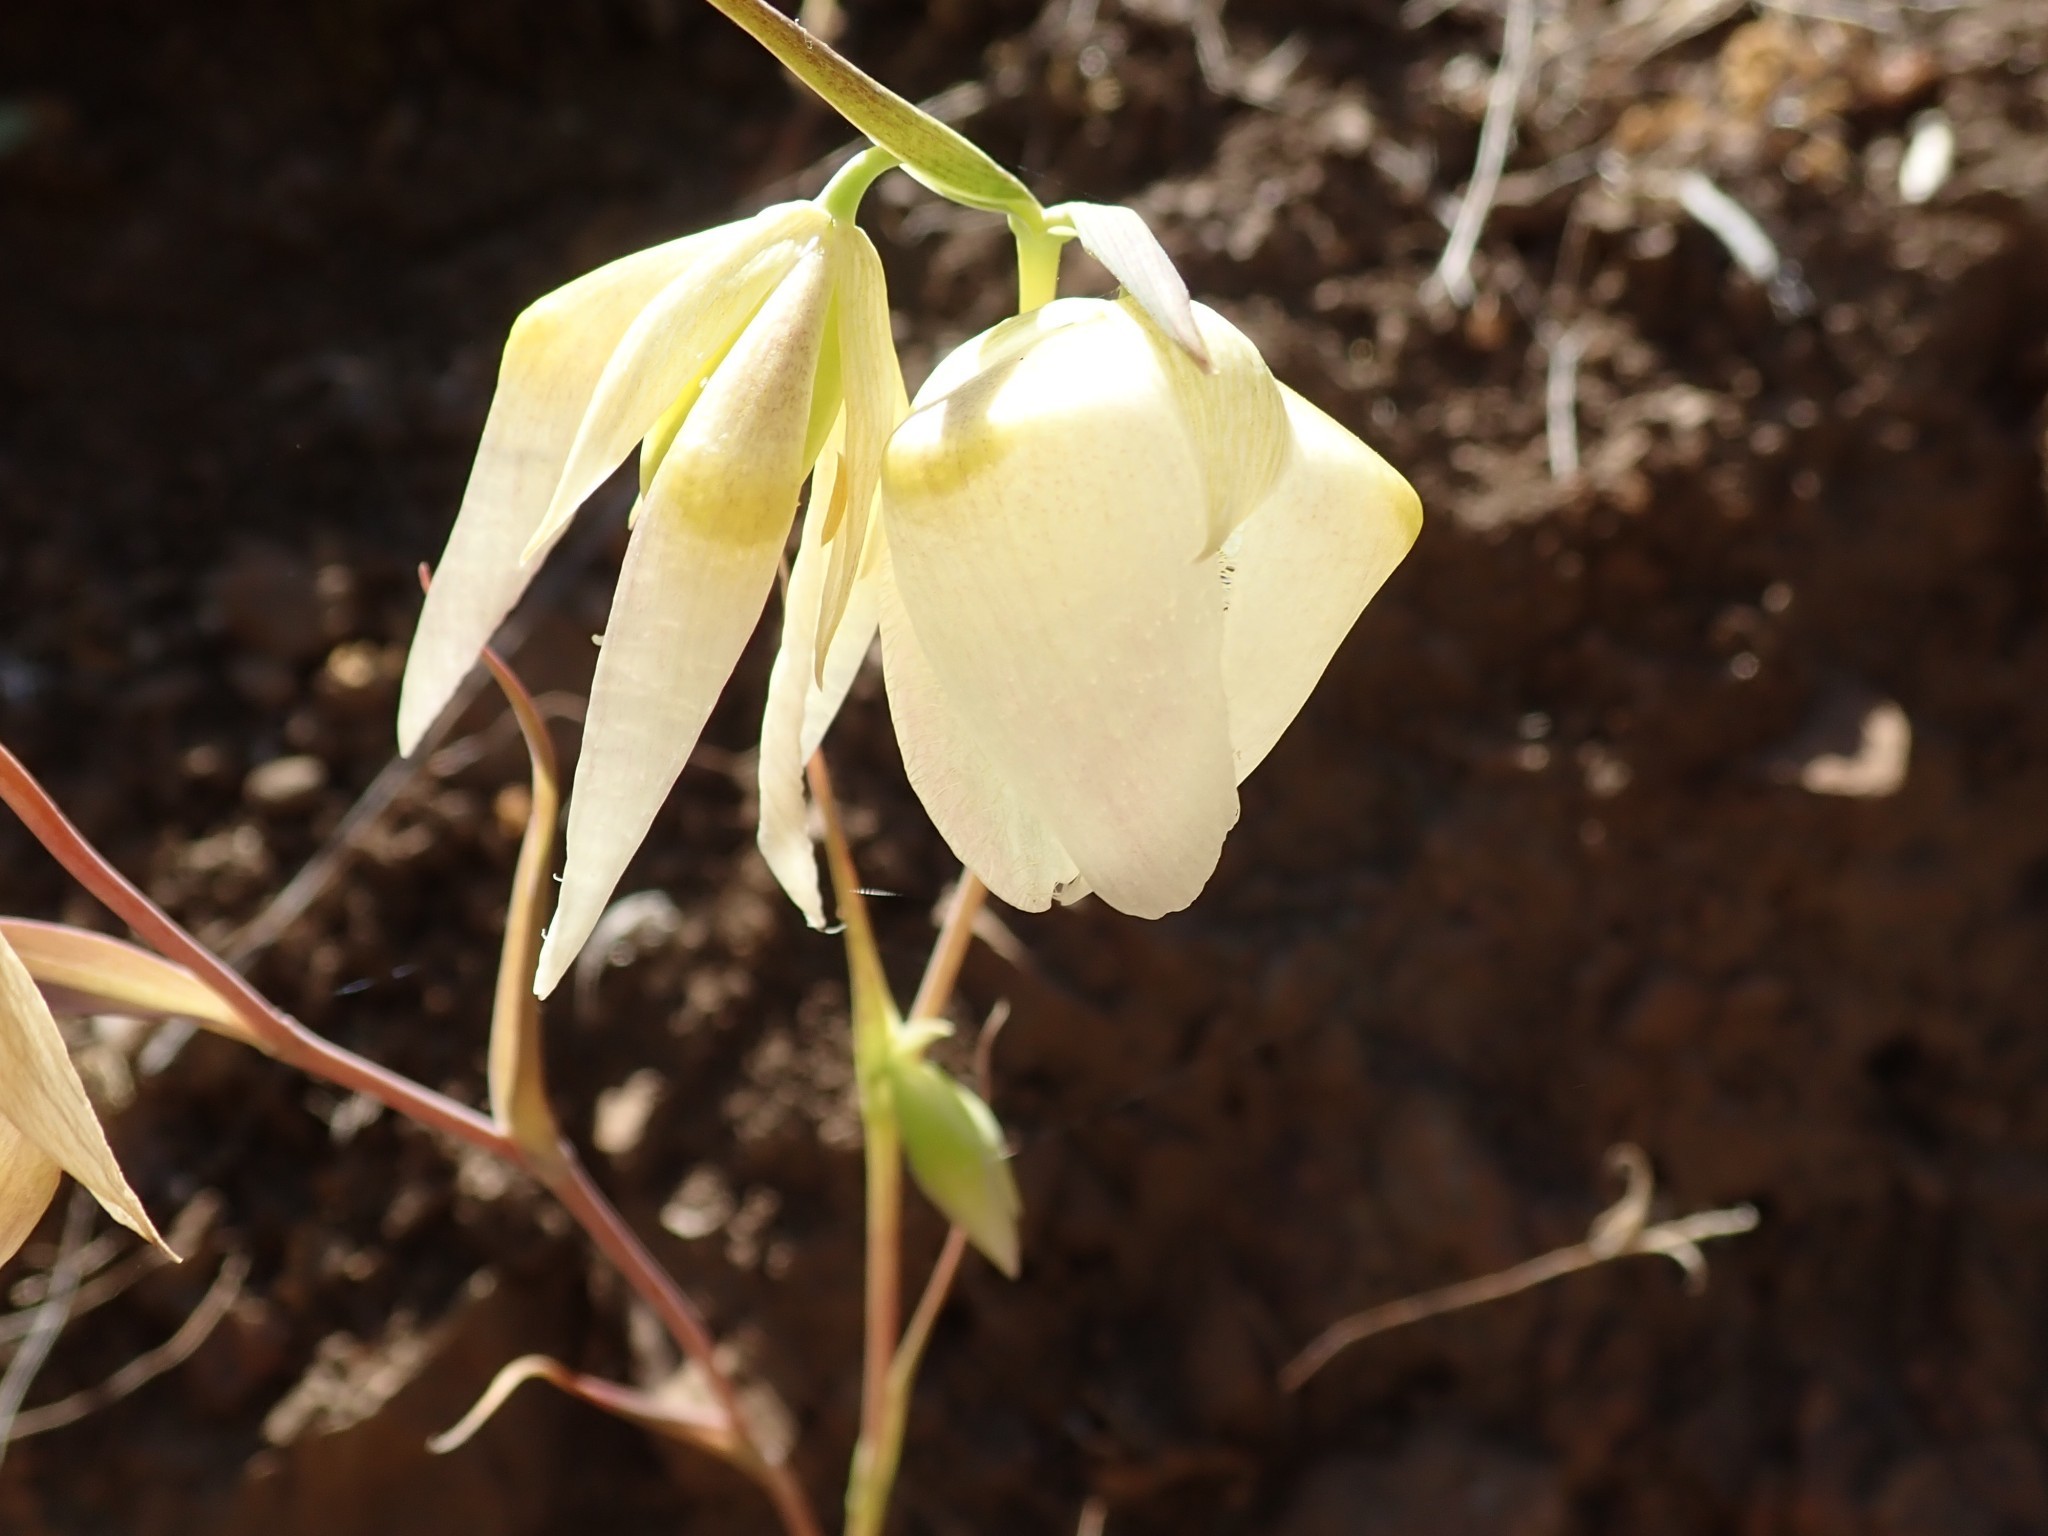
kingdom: Plantae
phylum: Tracheophyta
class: Liliopsida
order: Liliales
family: Liliaceae
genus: Calochortus
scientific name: Calochortus albus
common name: Fairy-lantern
